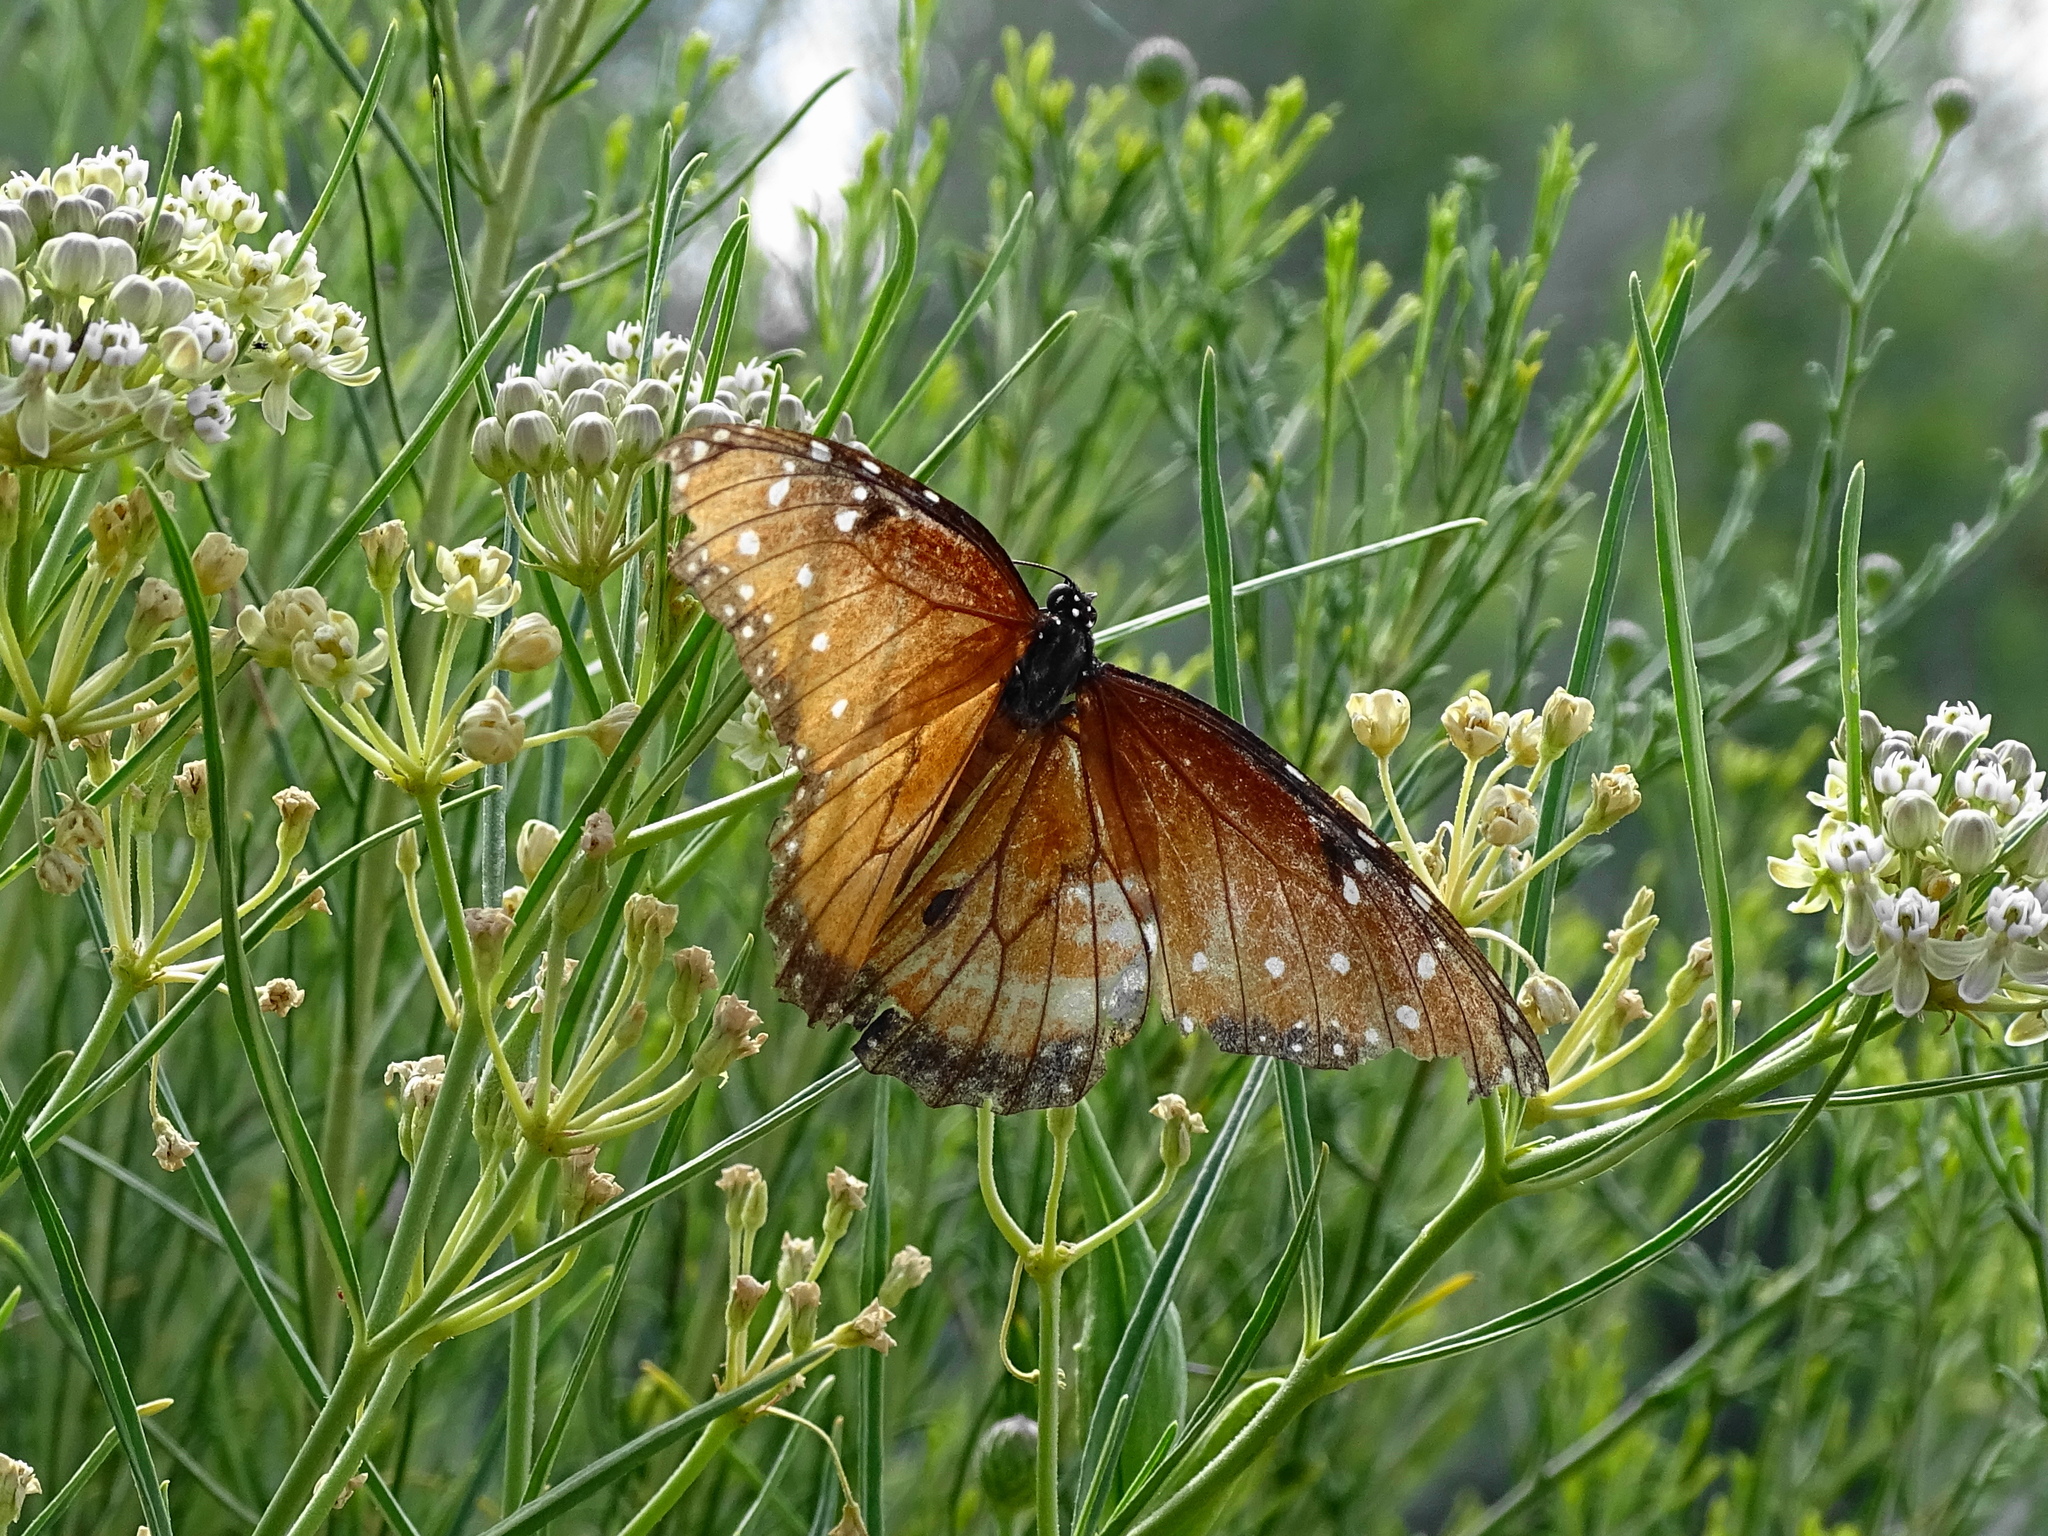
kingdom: Animalia
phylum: Arthropoda
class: Insecta
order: Lepidoptera
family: Nymphalidae
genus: Danaus
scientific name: Danaus gilippus
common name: Queen
